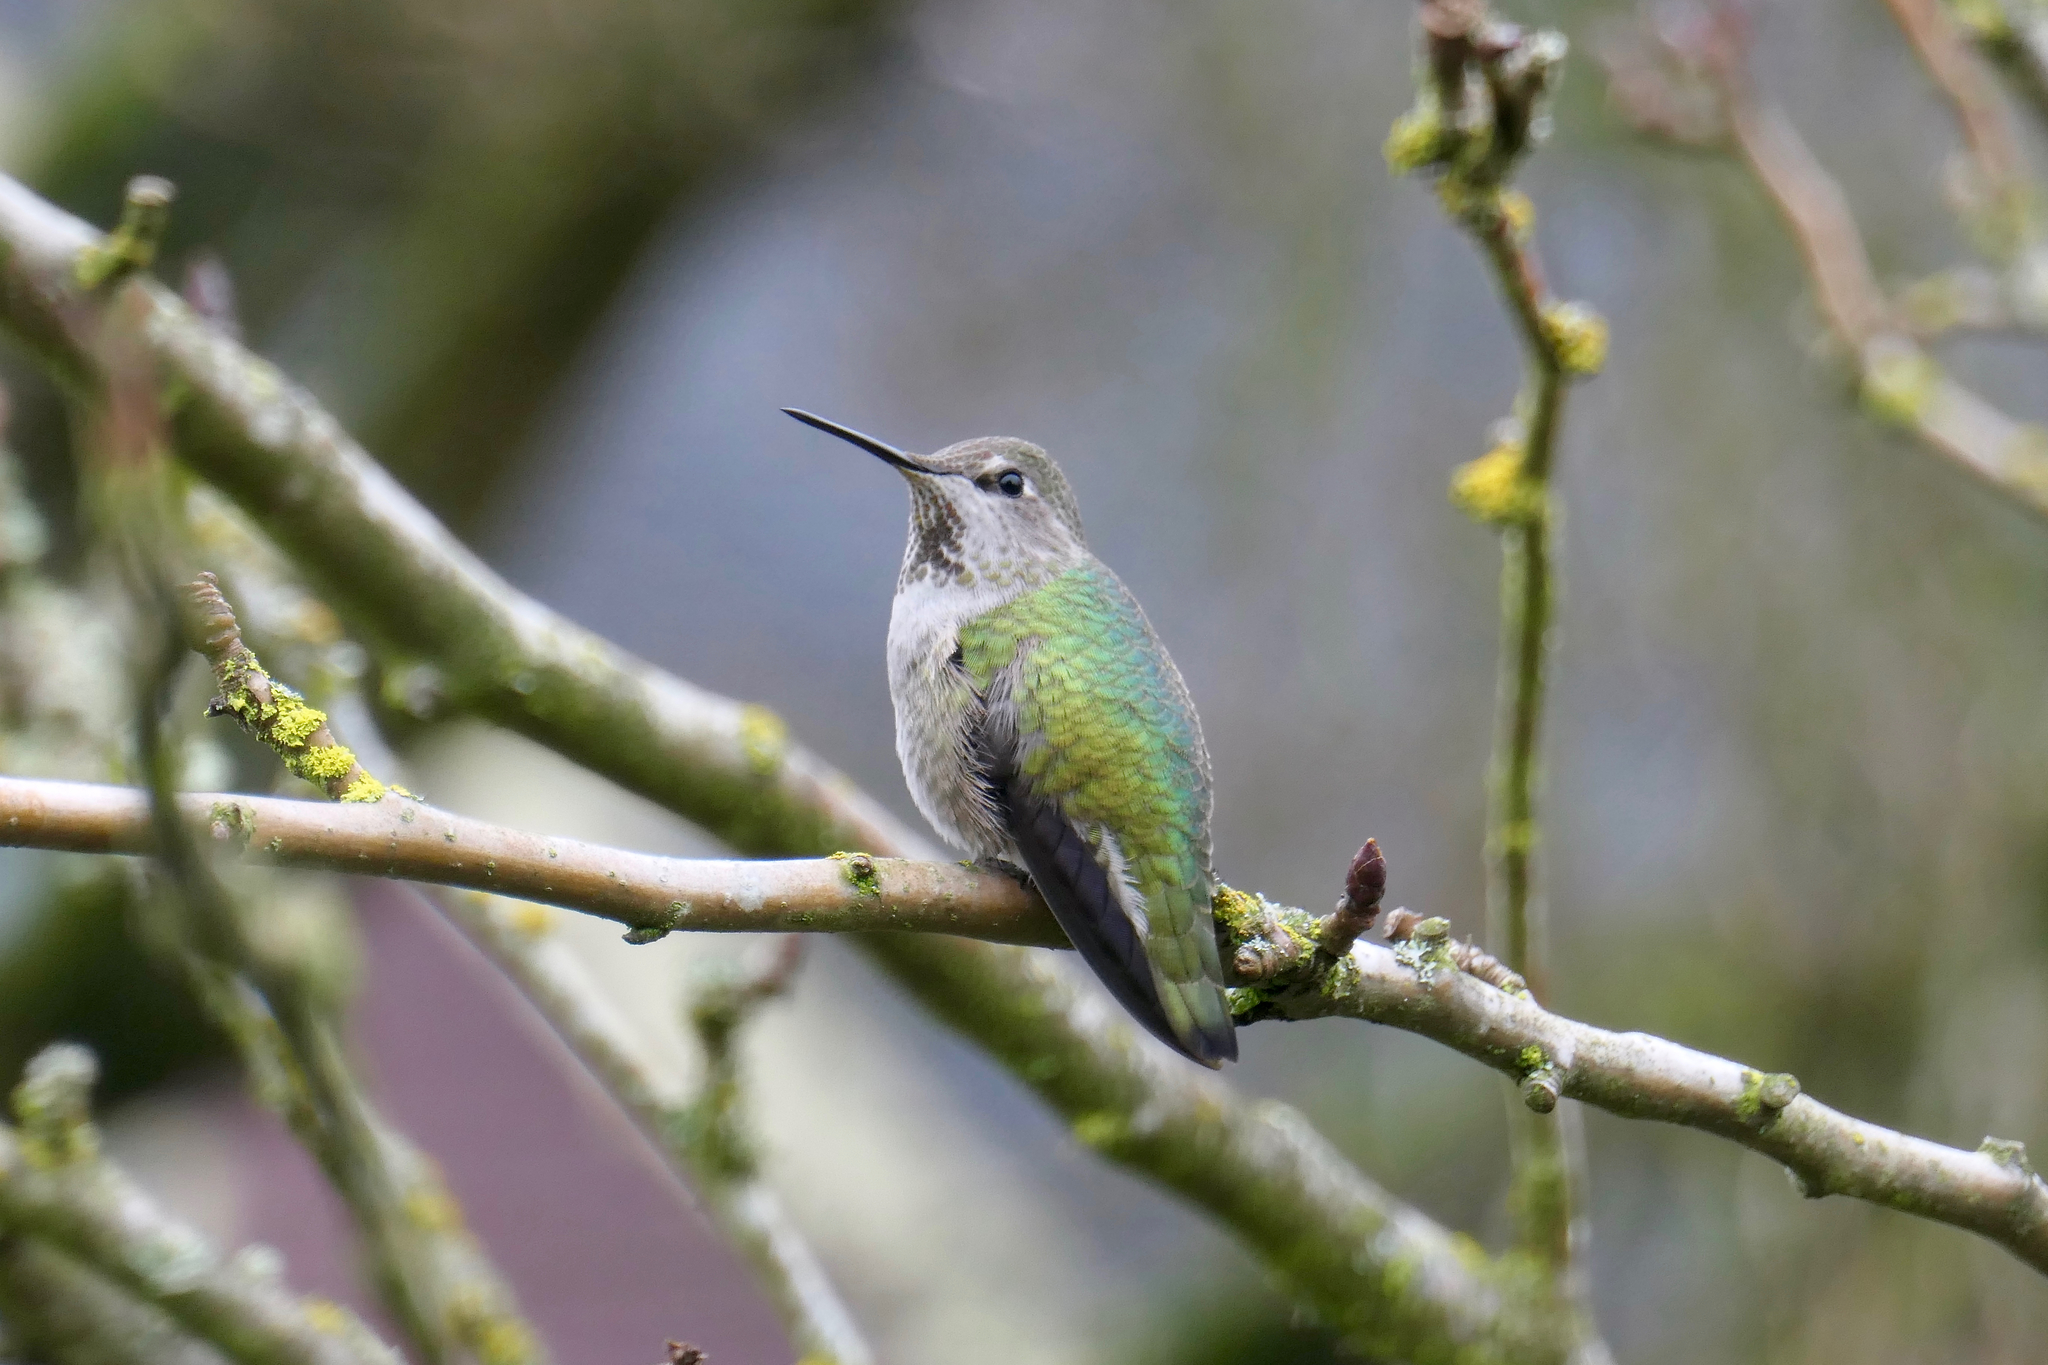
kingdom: Animalia
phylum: Chordata
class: Aves
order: Apodiformes
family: Trochilidae
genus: Calypte
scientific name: Calypte anna
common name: Anna's hummingbird
